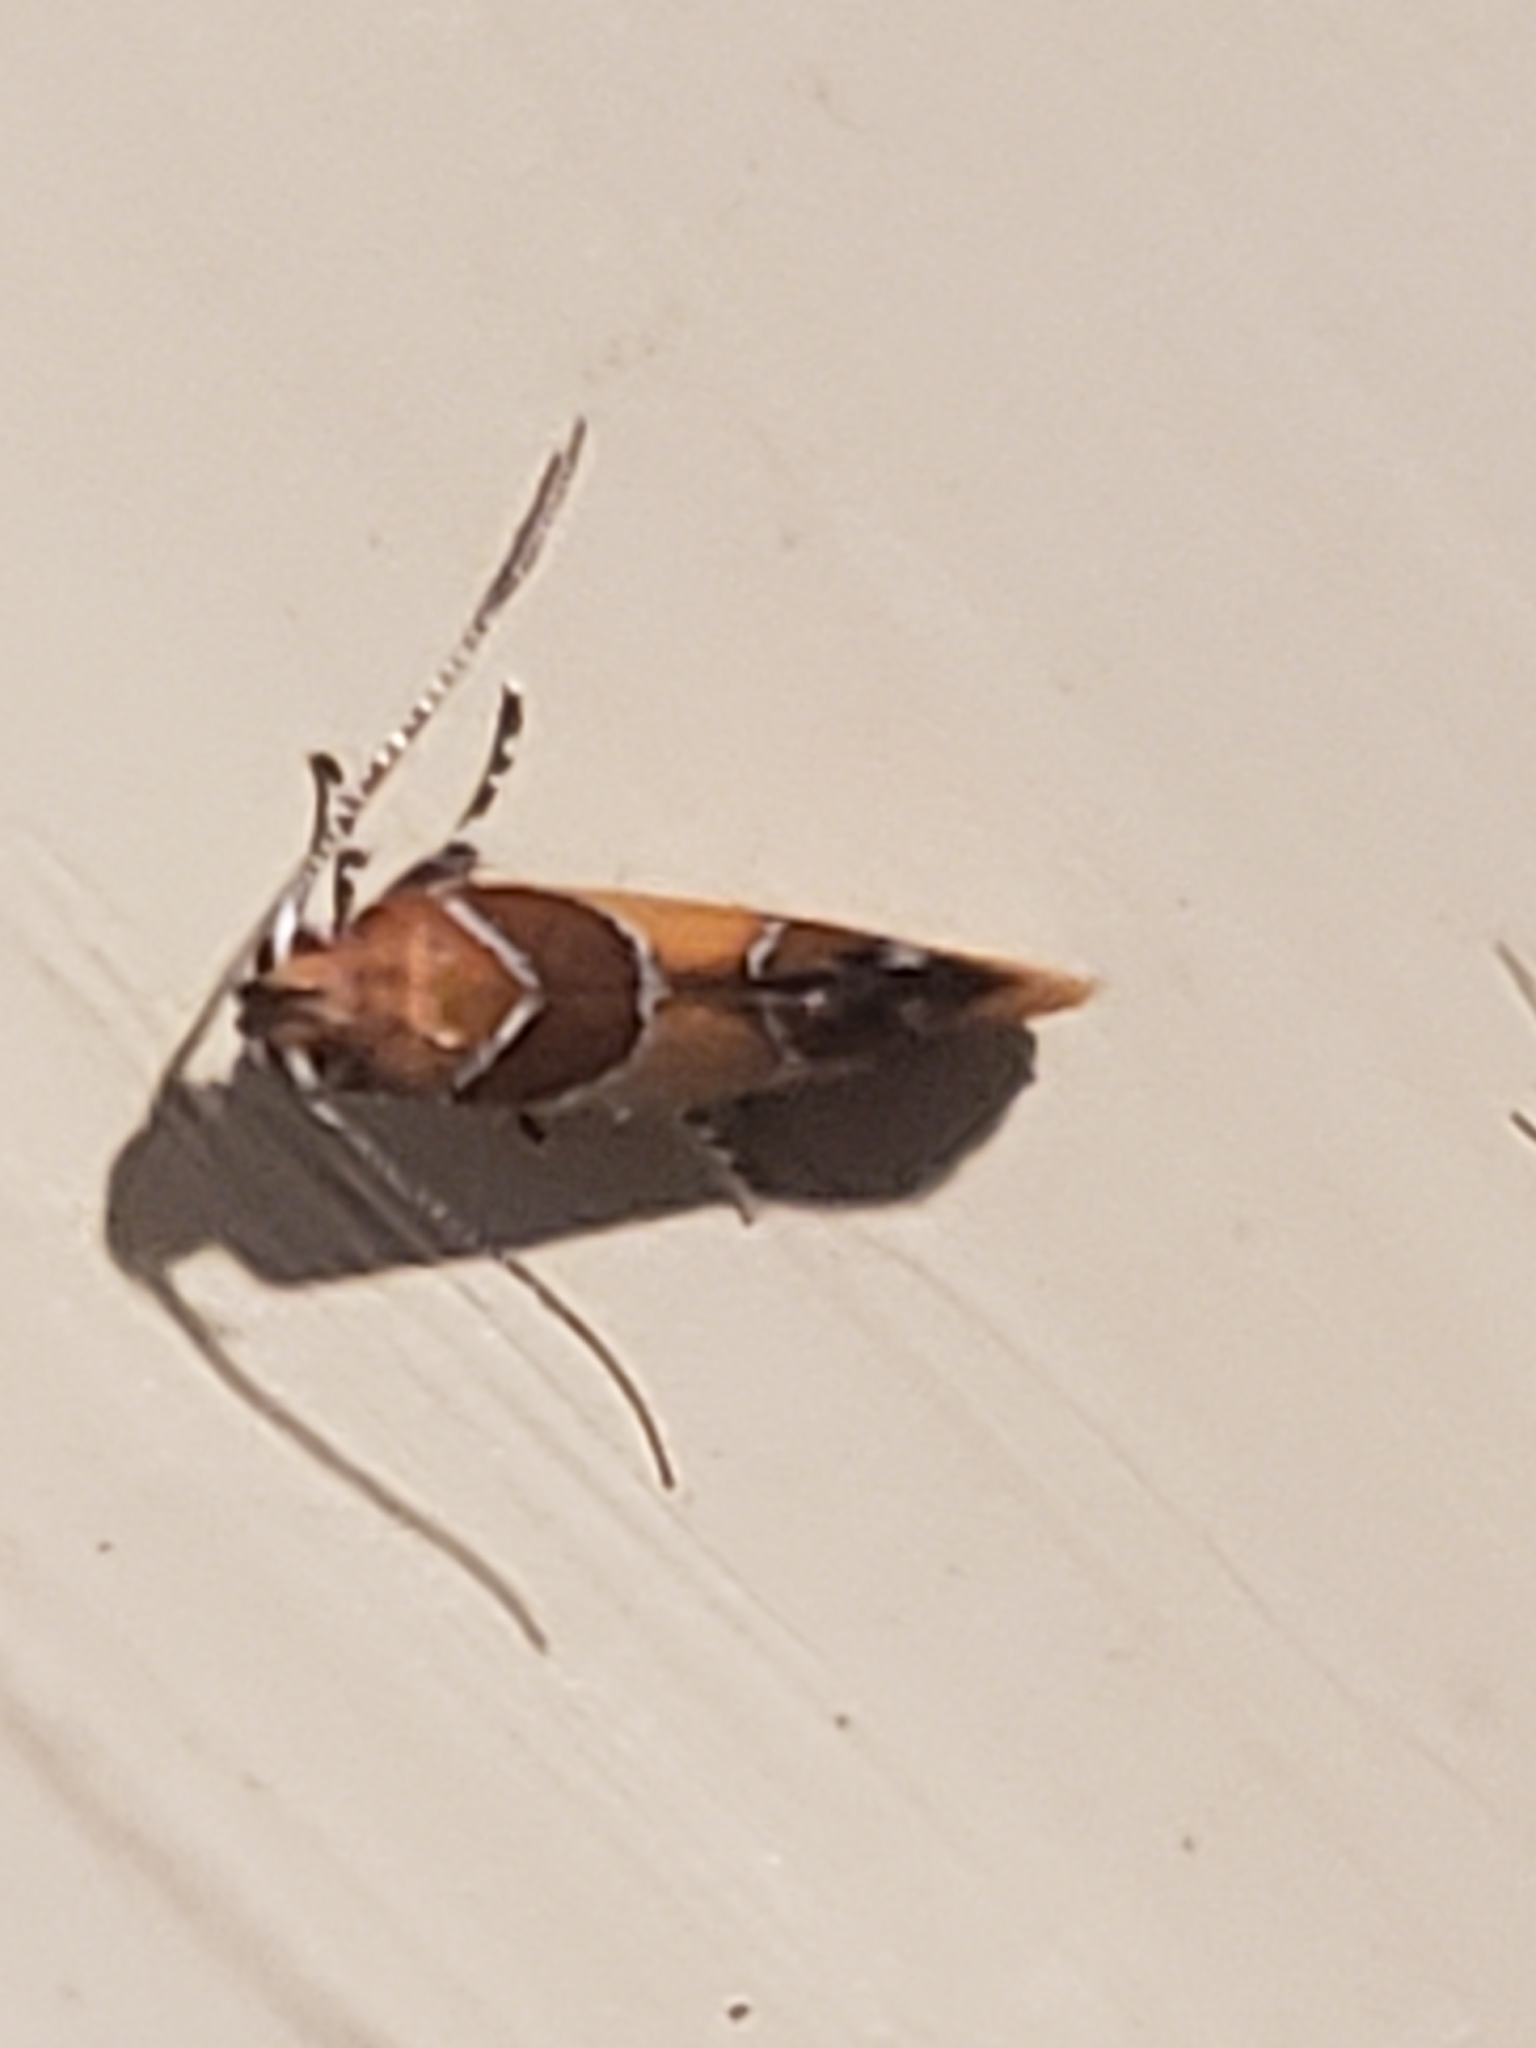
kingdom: Animalia
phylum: Arthropoda
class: Insecta
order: Lepidoptera
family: Oecophoridae
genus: Callima
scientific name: Callima argenticinctella
